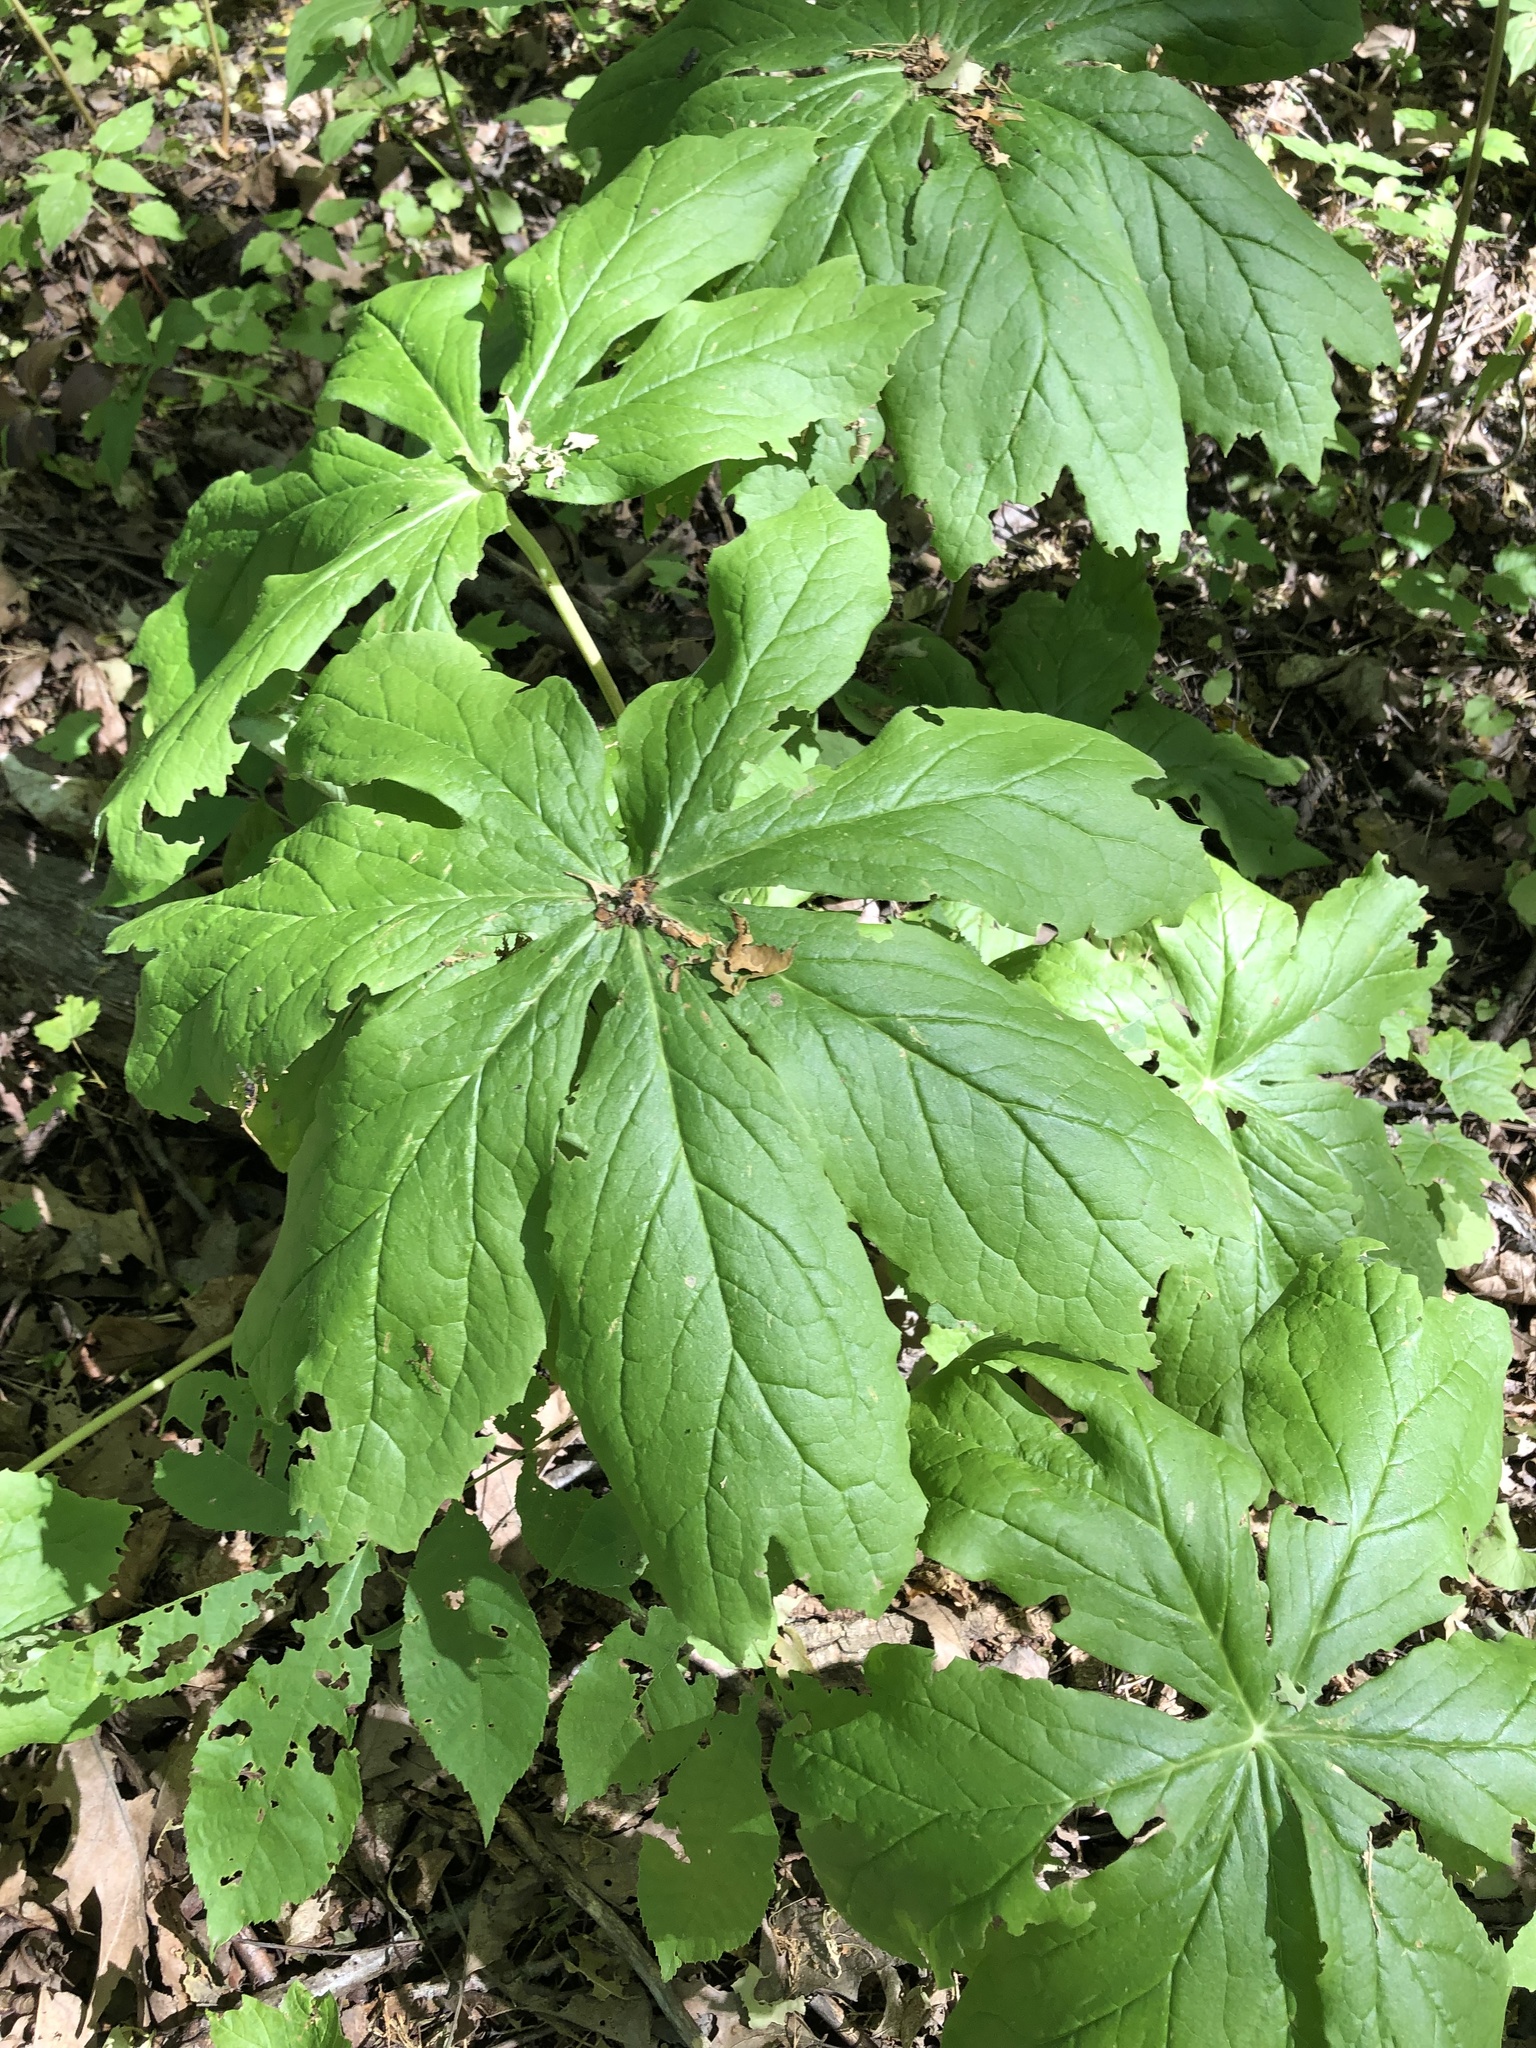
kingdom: Plantae
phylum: Tracheophyta
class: Magnoliopsida
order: Ranunculales
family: Berberidaceae
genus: Podophyllum
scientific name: Podophyllum peltatum
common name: Wild mandrake
